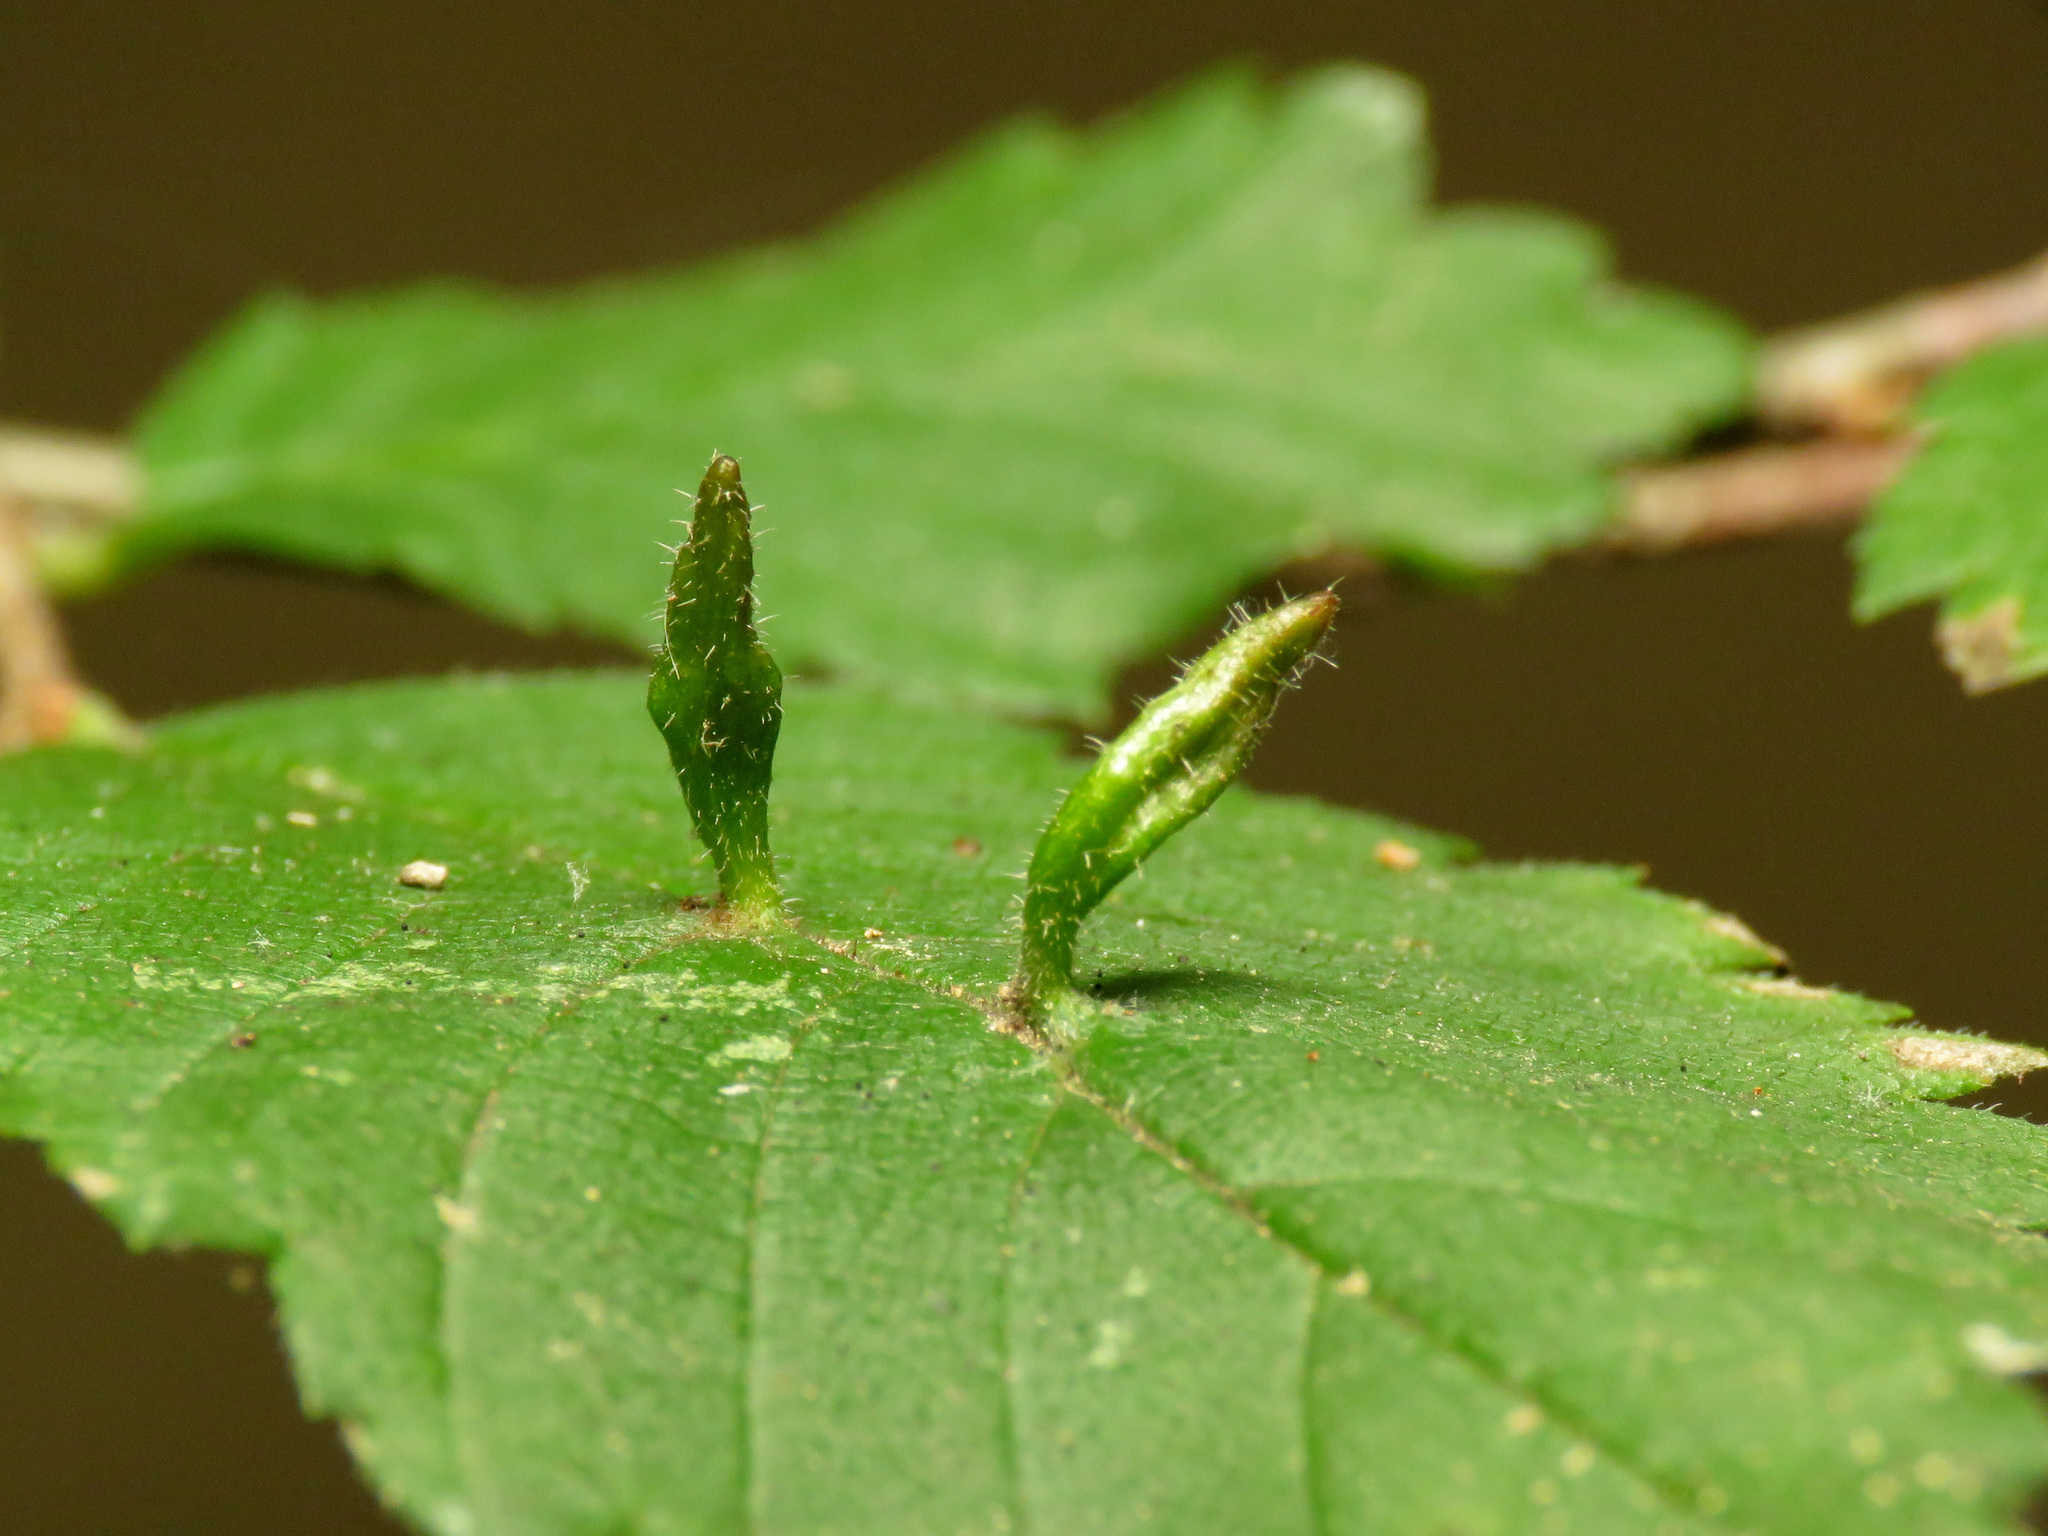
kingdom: Animalia
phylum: Arthropoda
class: Arachnida
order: Trombidiformes
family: Eriophyidae
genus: Aceria
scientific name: Aceria
